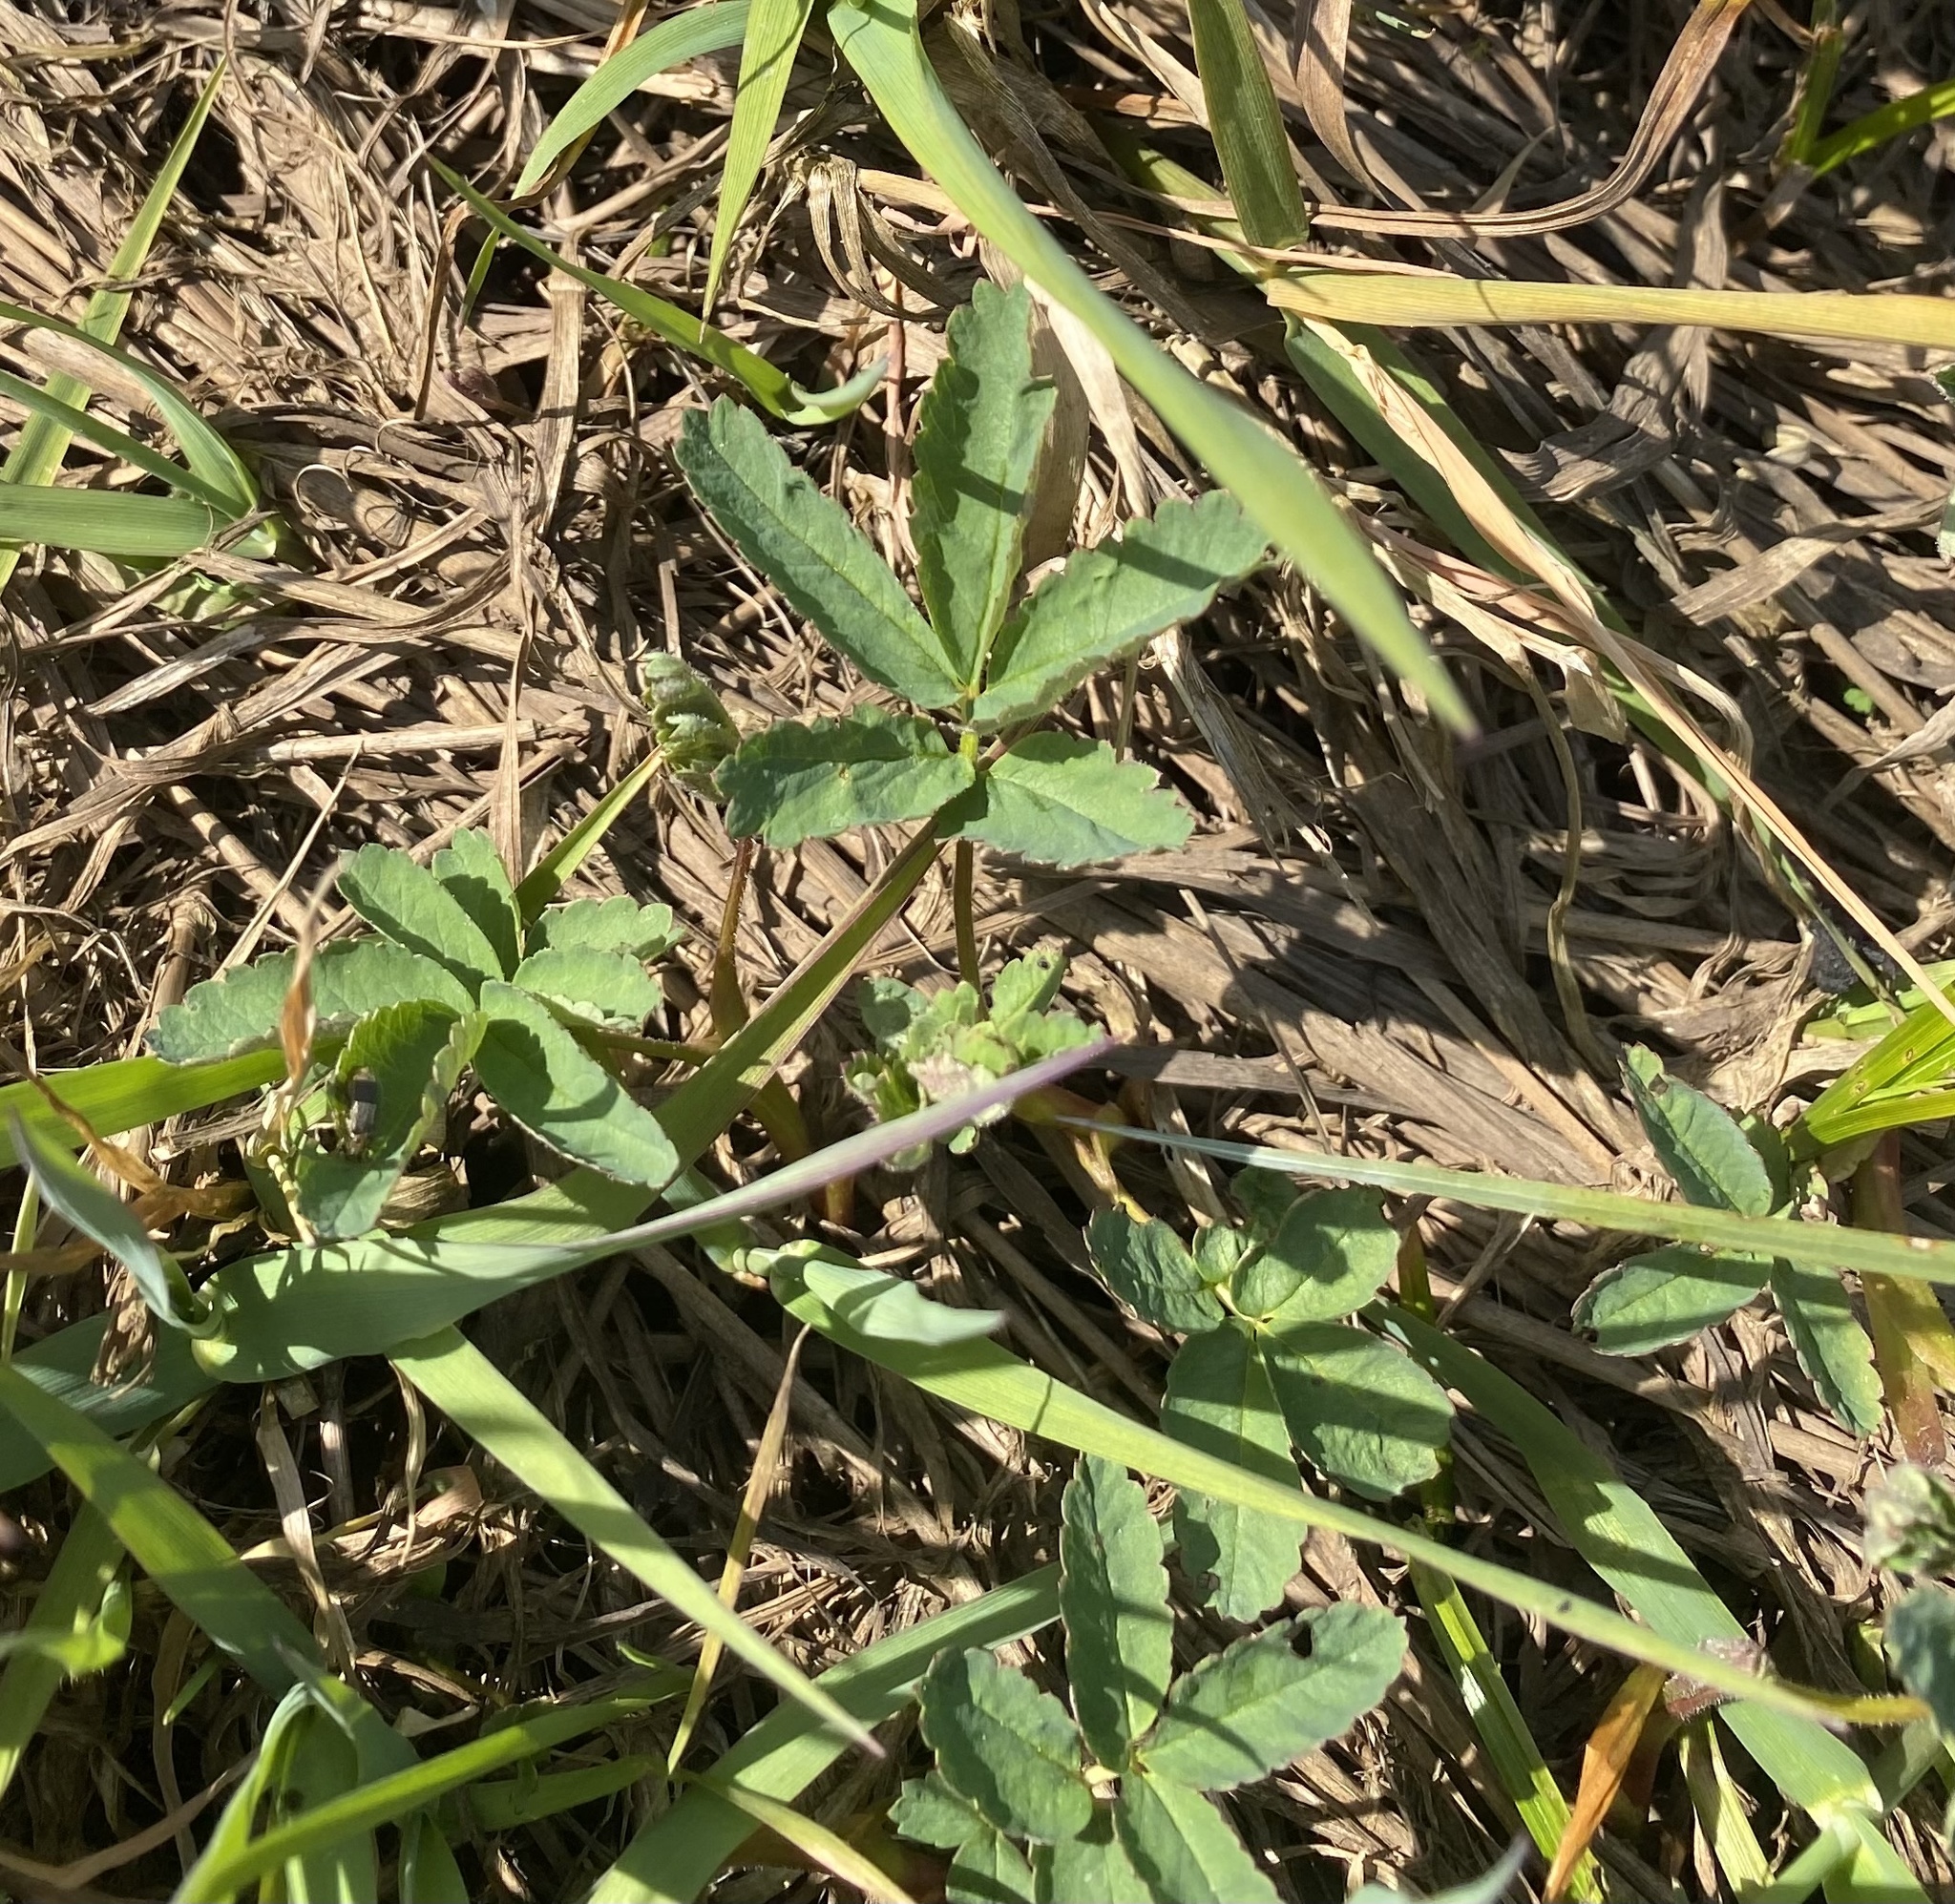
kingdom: Plantae
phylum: Tracheophyta
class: Magnoliopsida
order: Rosales
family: Rosaceae
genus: Comarum
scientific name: Comarum palustre
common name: Marsh cinquefoil
